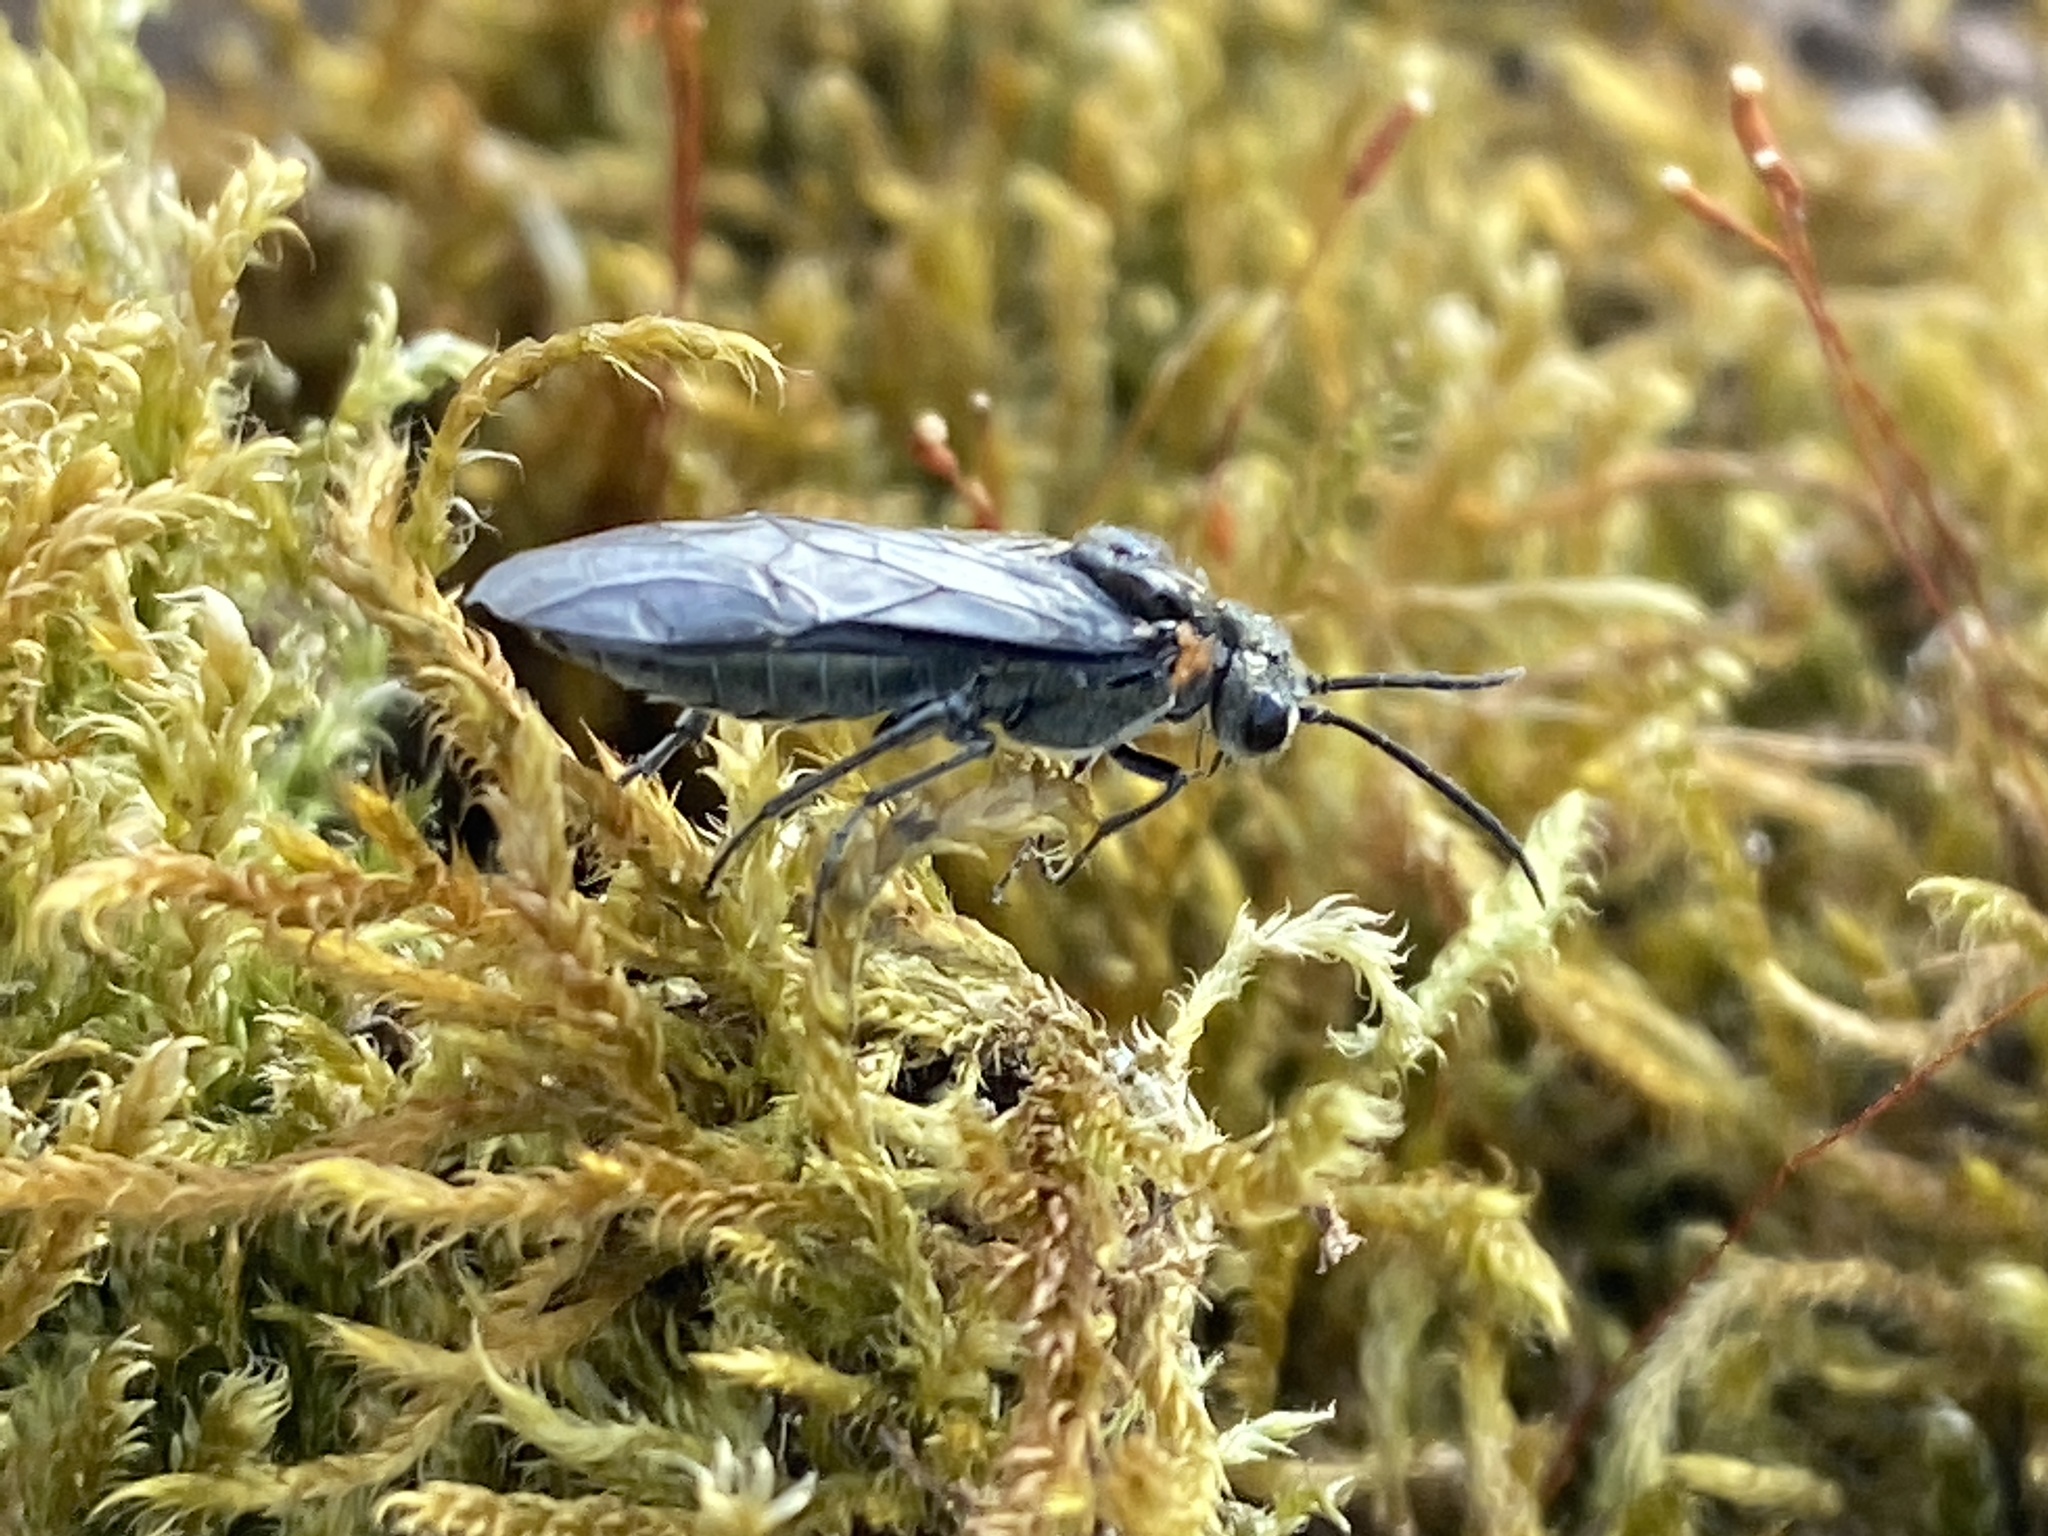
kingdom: Animalia
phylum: Arthropoda
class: Insecta
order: Hymenoptera
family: Tenthredinidae
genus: Dolerus
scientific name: Dolerus haematodes
